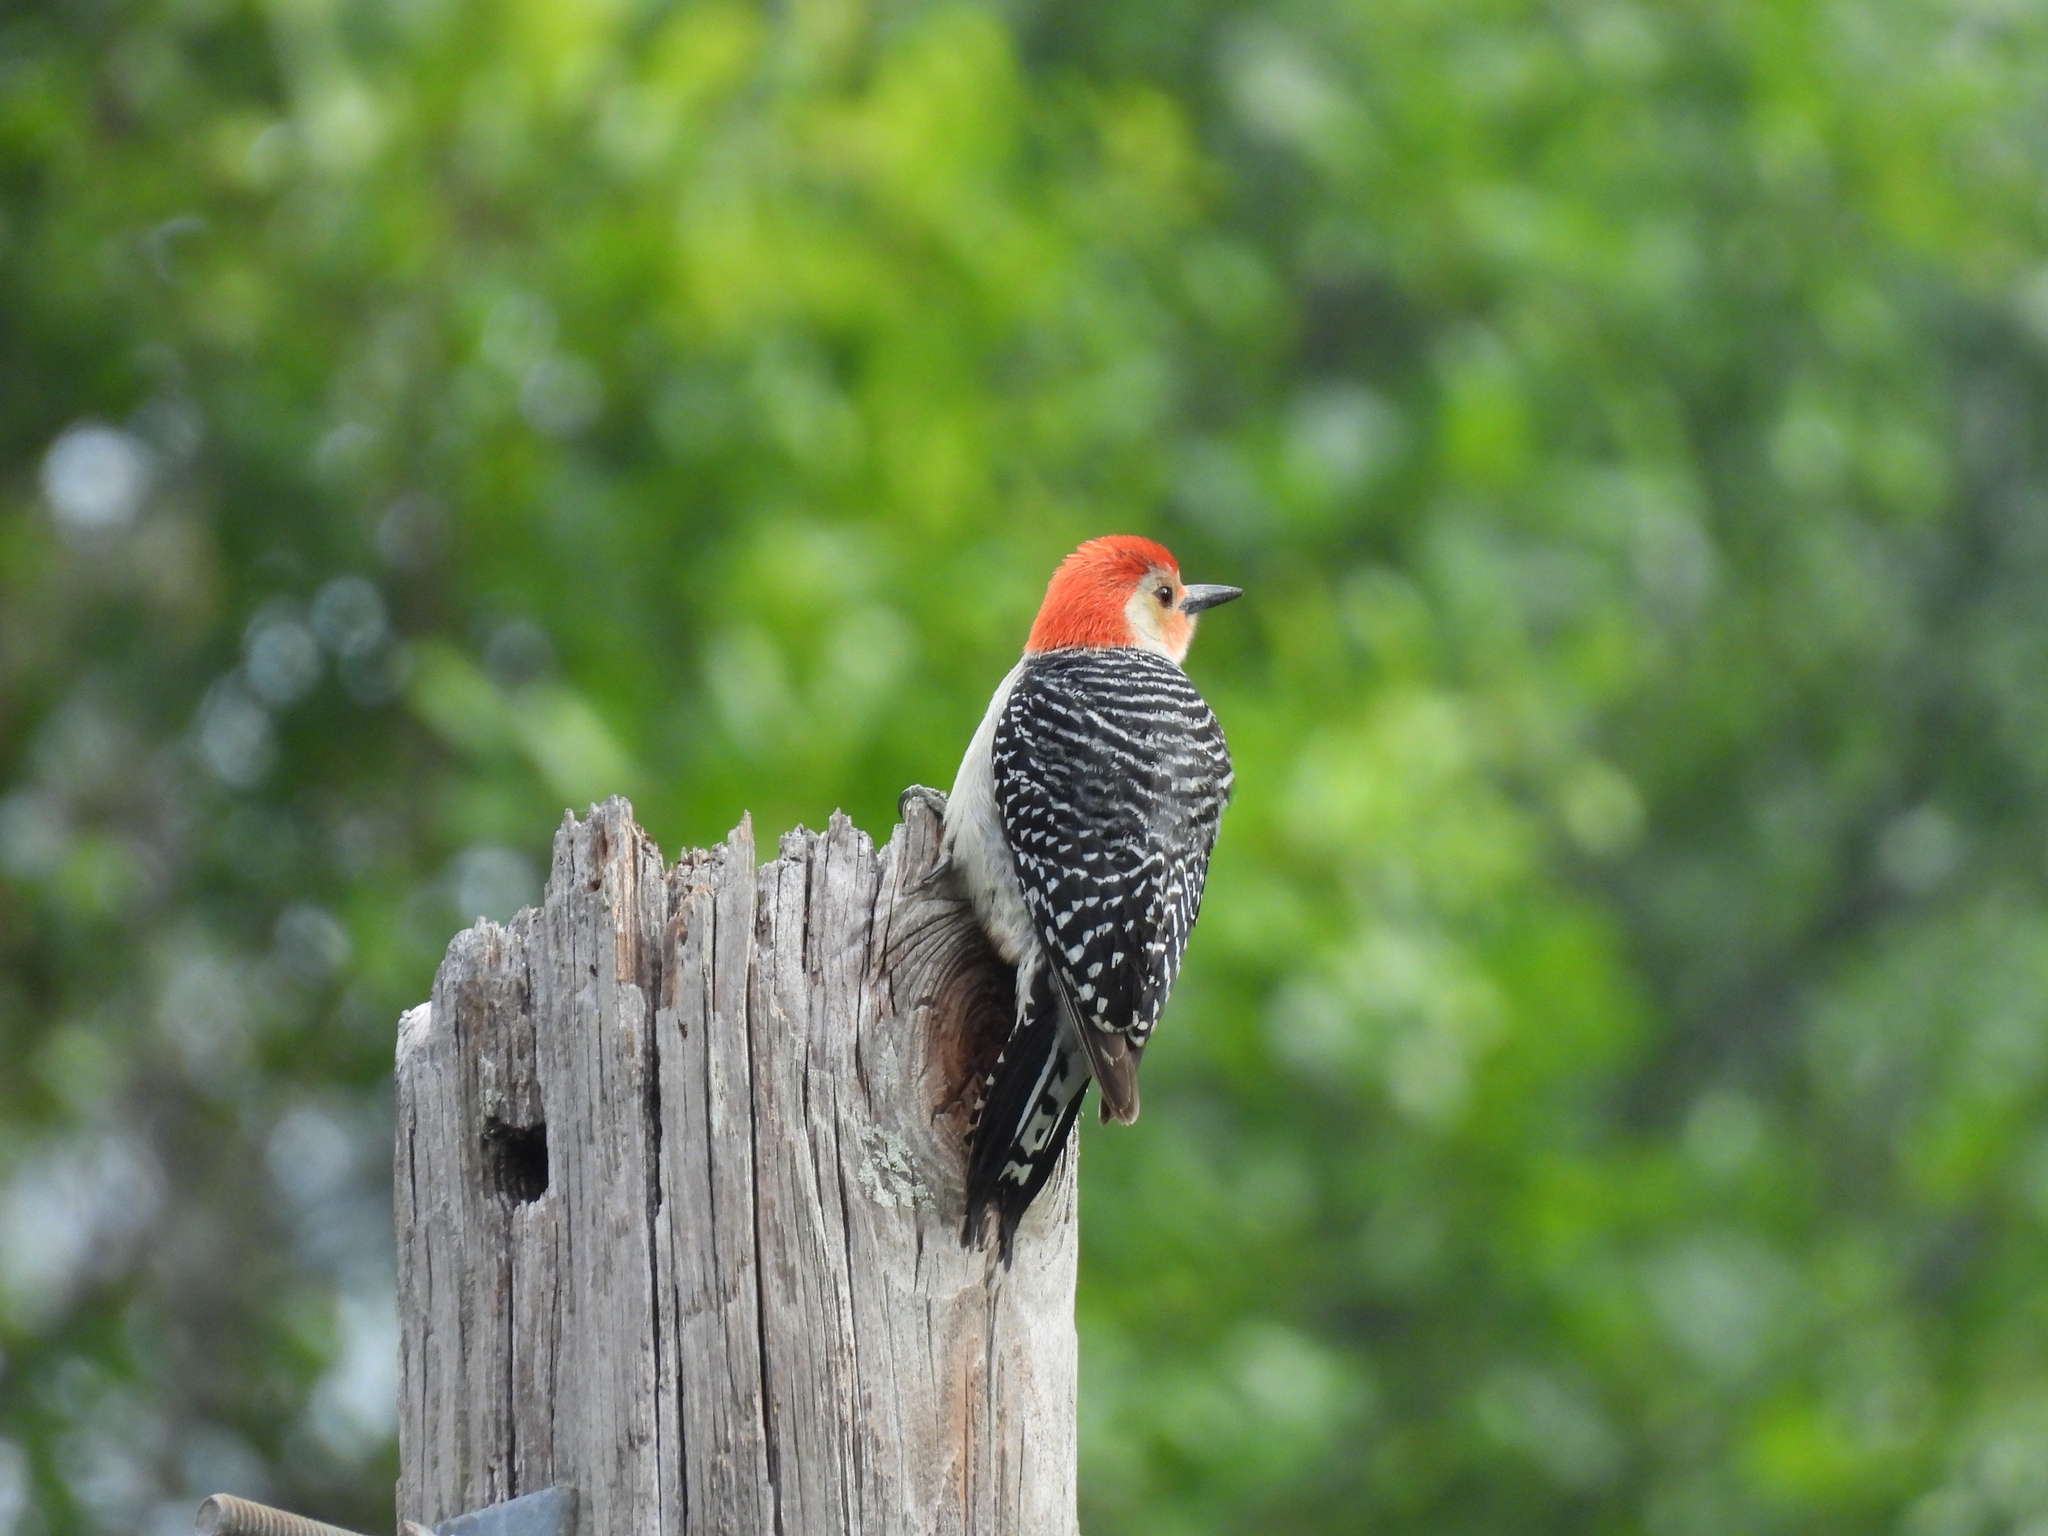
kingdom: Animalia
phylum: Chordata
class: Aves
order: Piciformes
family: Picidae
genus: Melanerpes
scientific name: Melanerpes carolinus
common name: Red-bellied woodpecker
